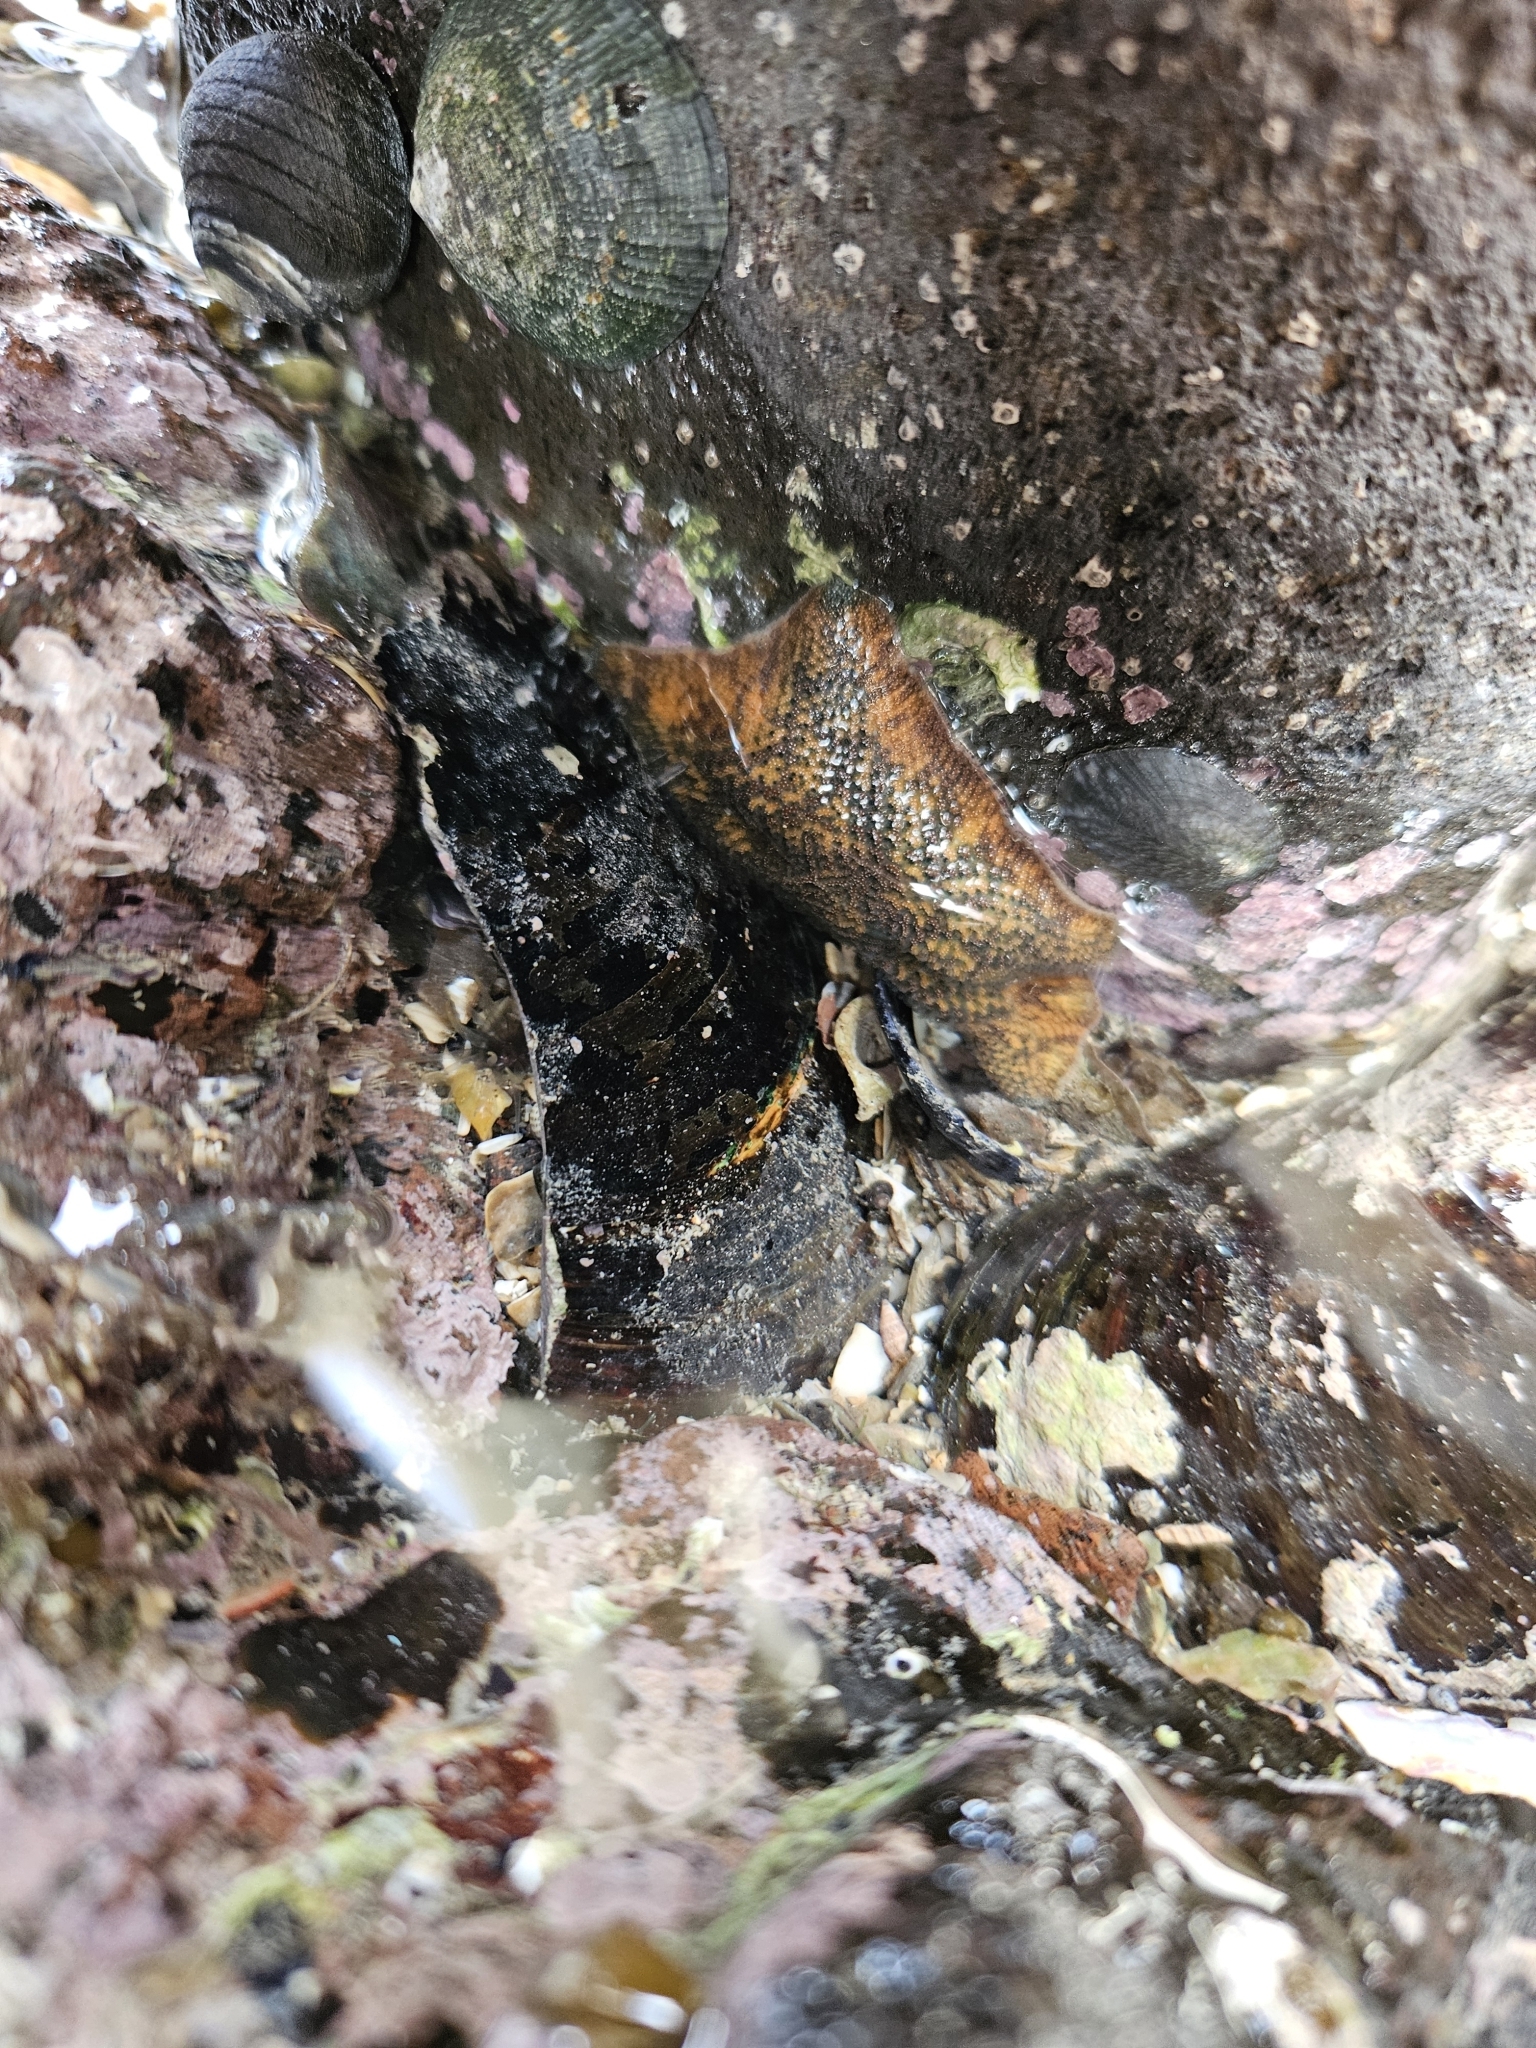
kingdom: Animalia
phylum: Echinodermata
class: Asteroidea
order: Valvatida
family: Asterinidae
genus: Patiriella
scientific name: Patiriella regularis
